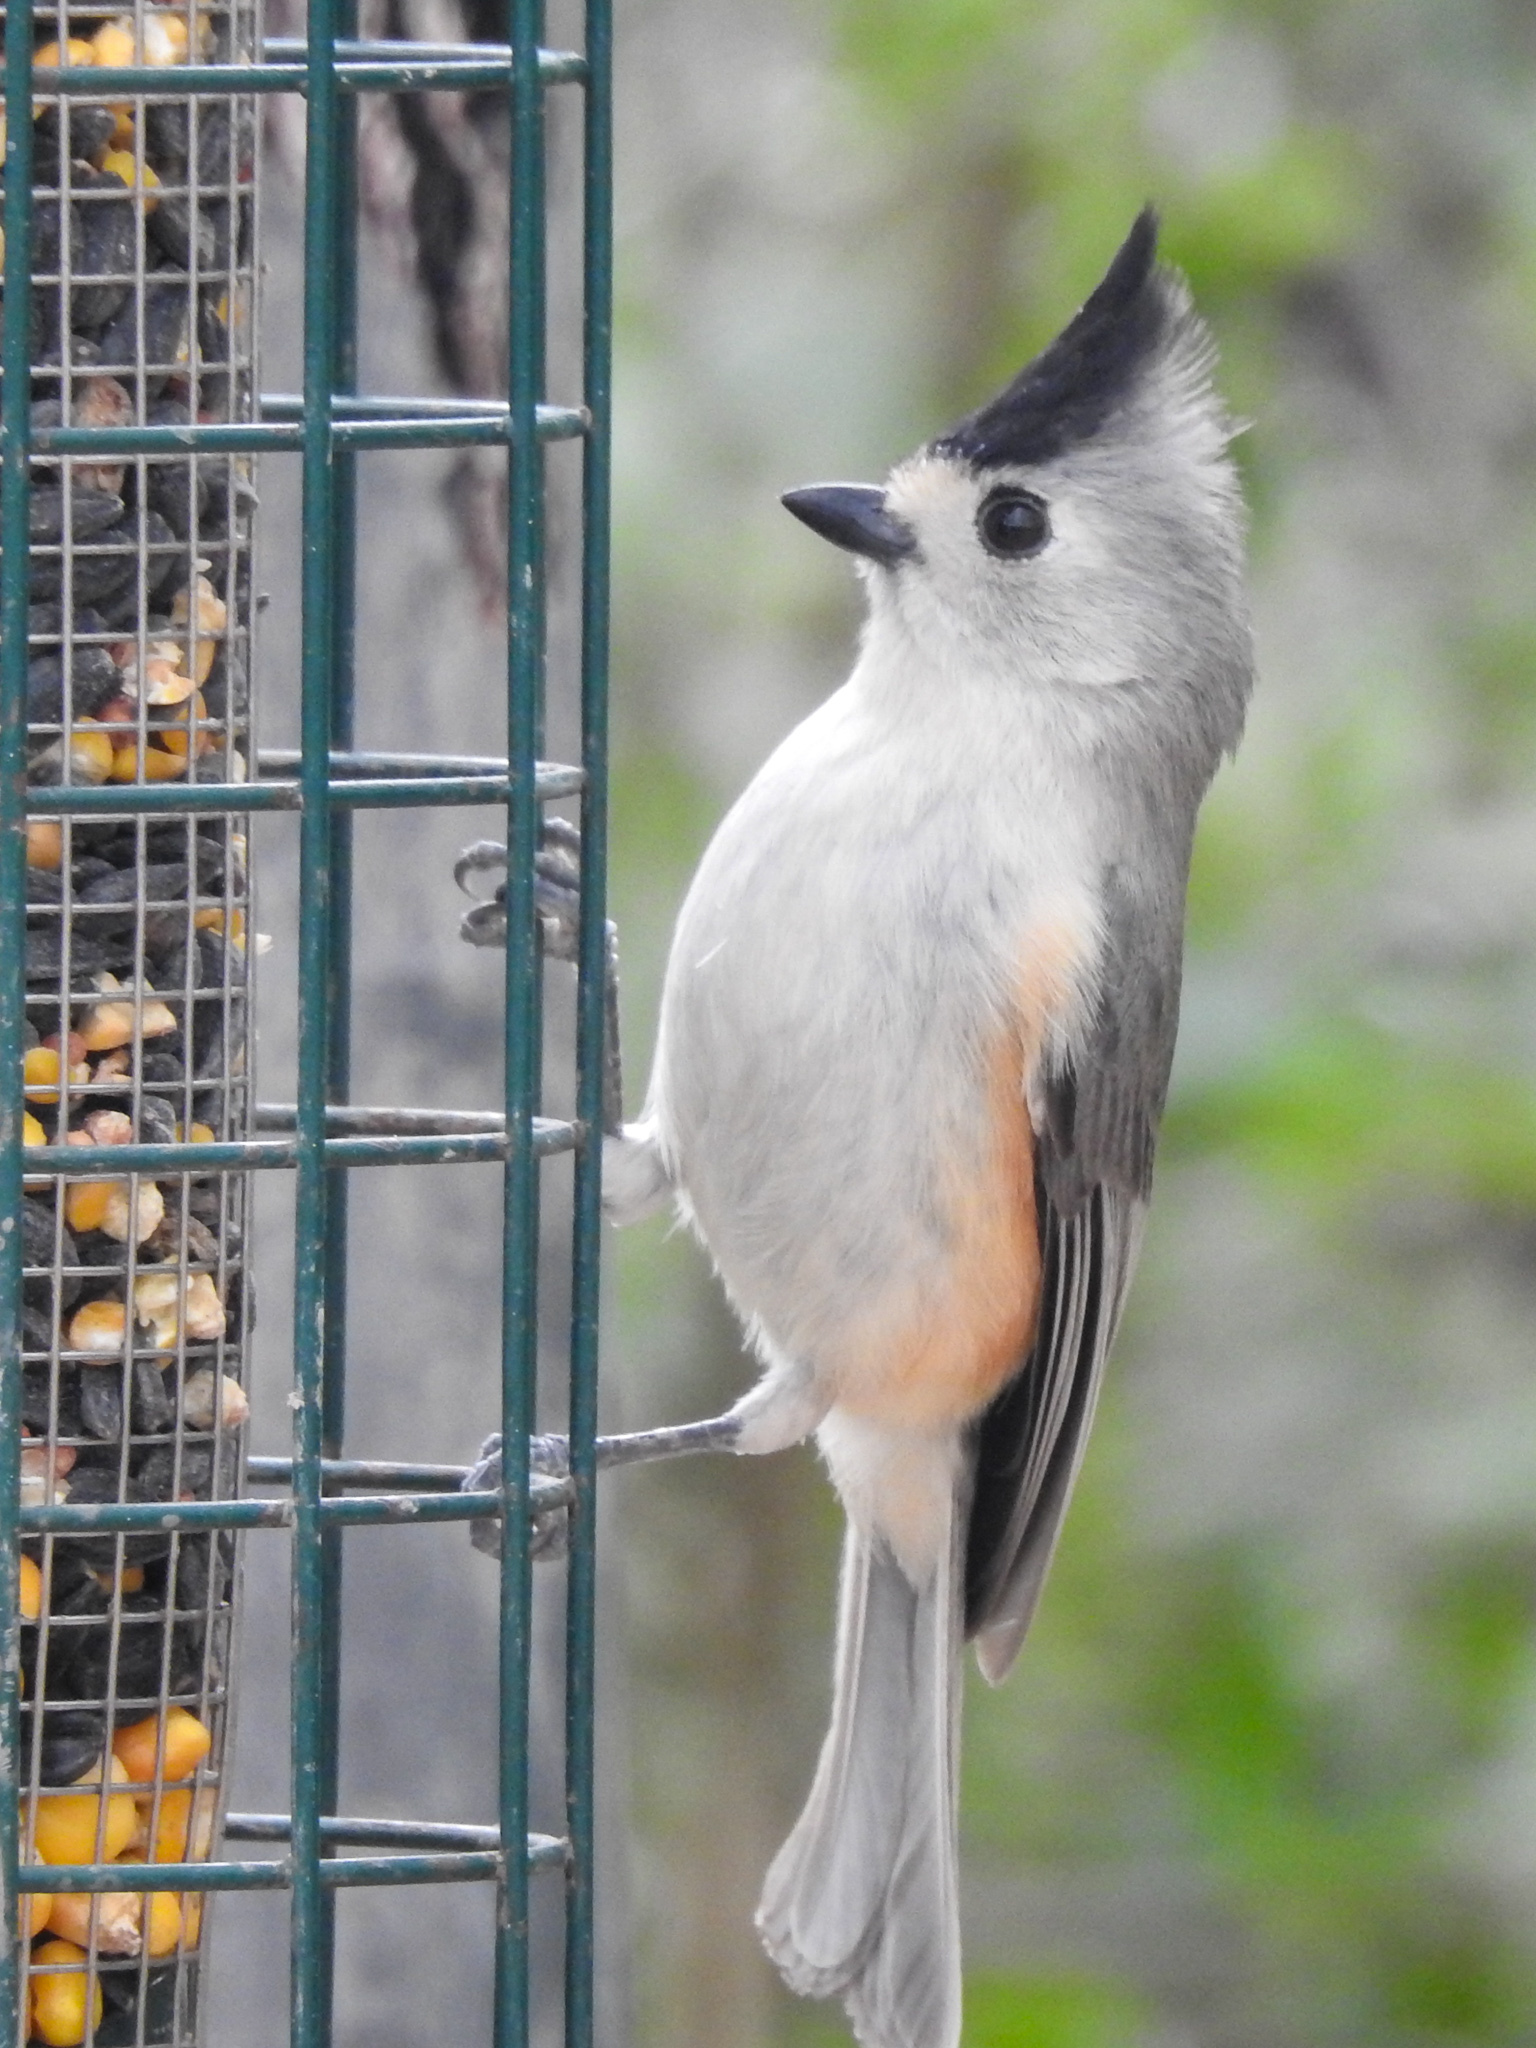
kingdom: Animalia
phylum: Chordata
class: Aves
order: Passeriformes
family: Paridae
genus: Baeolophus
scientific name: Baeolophus atricristatus
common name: Black-crested titmouse
